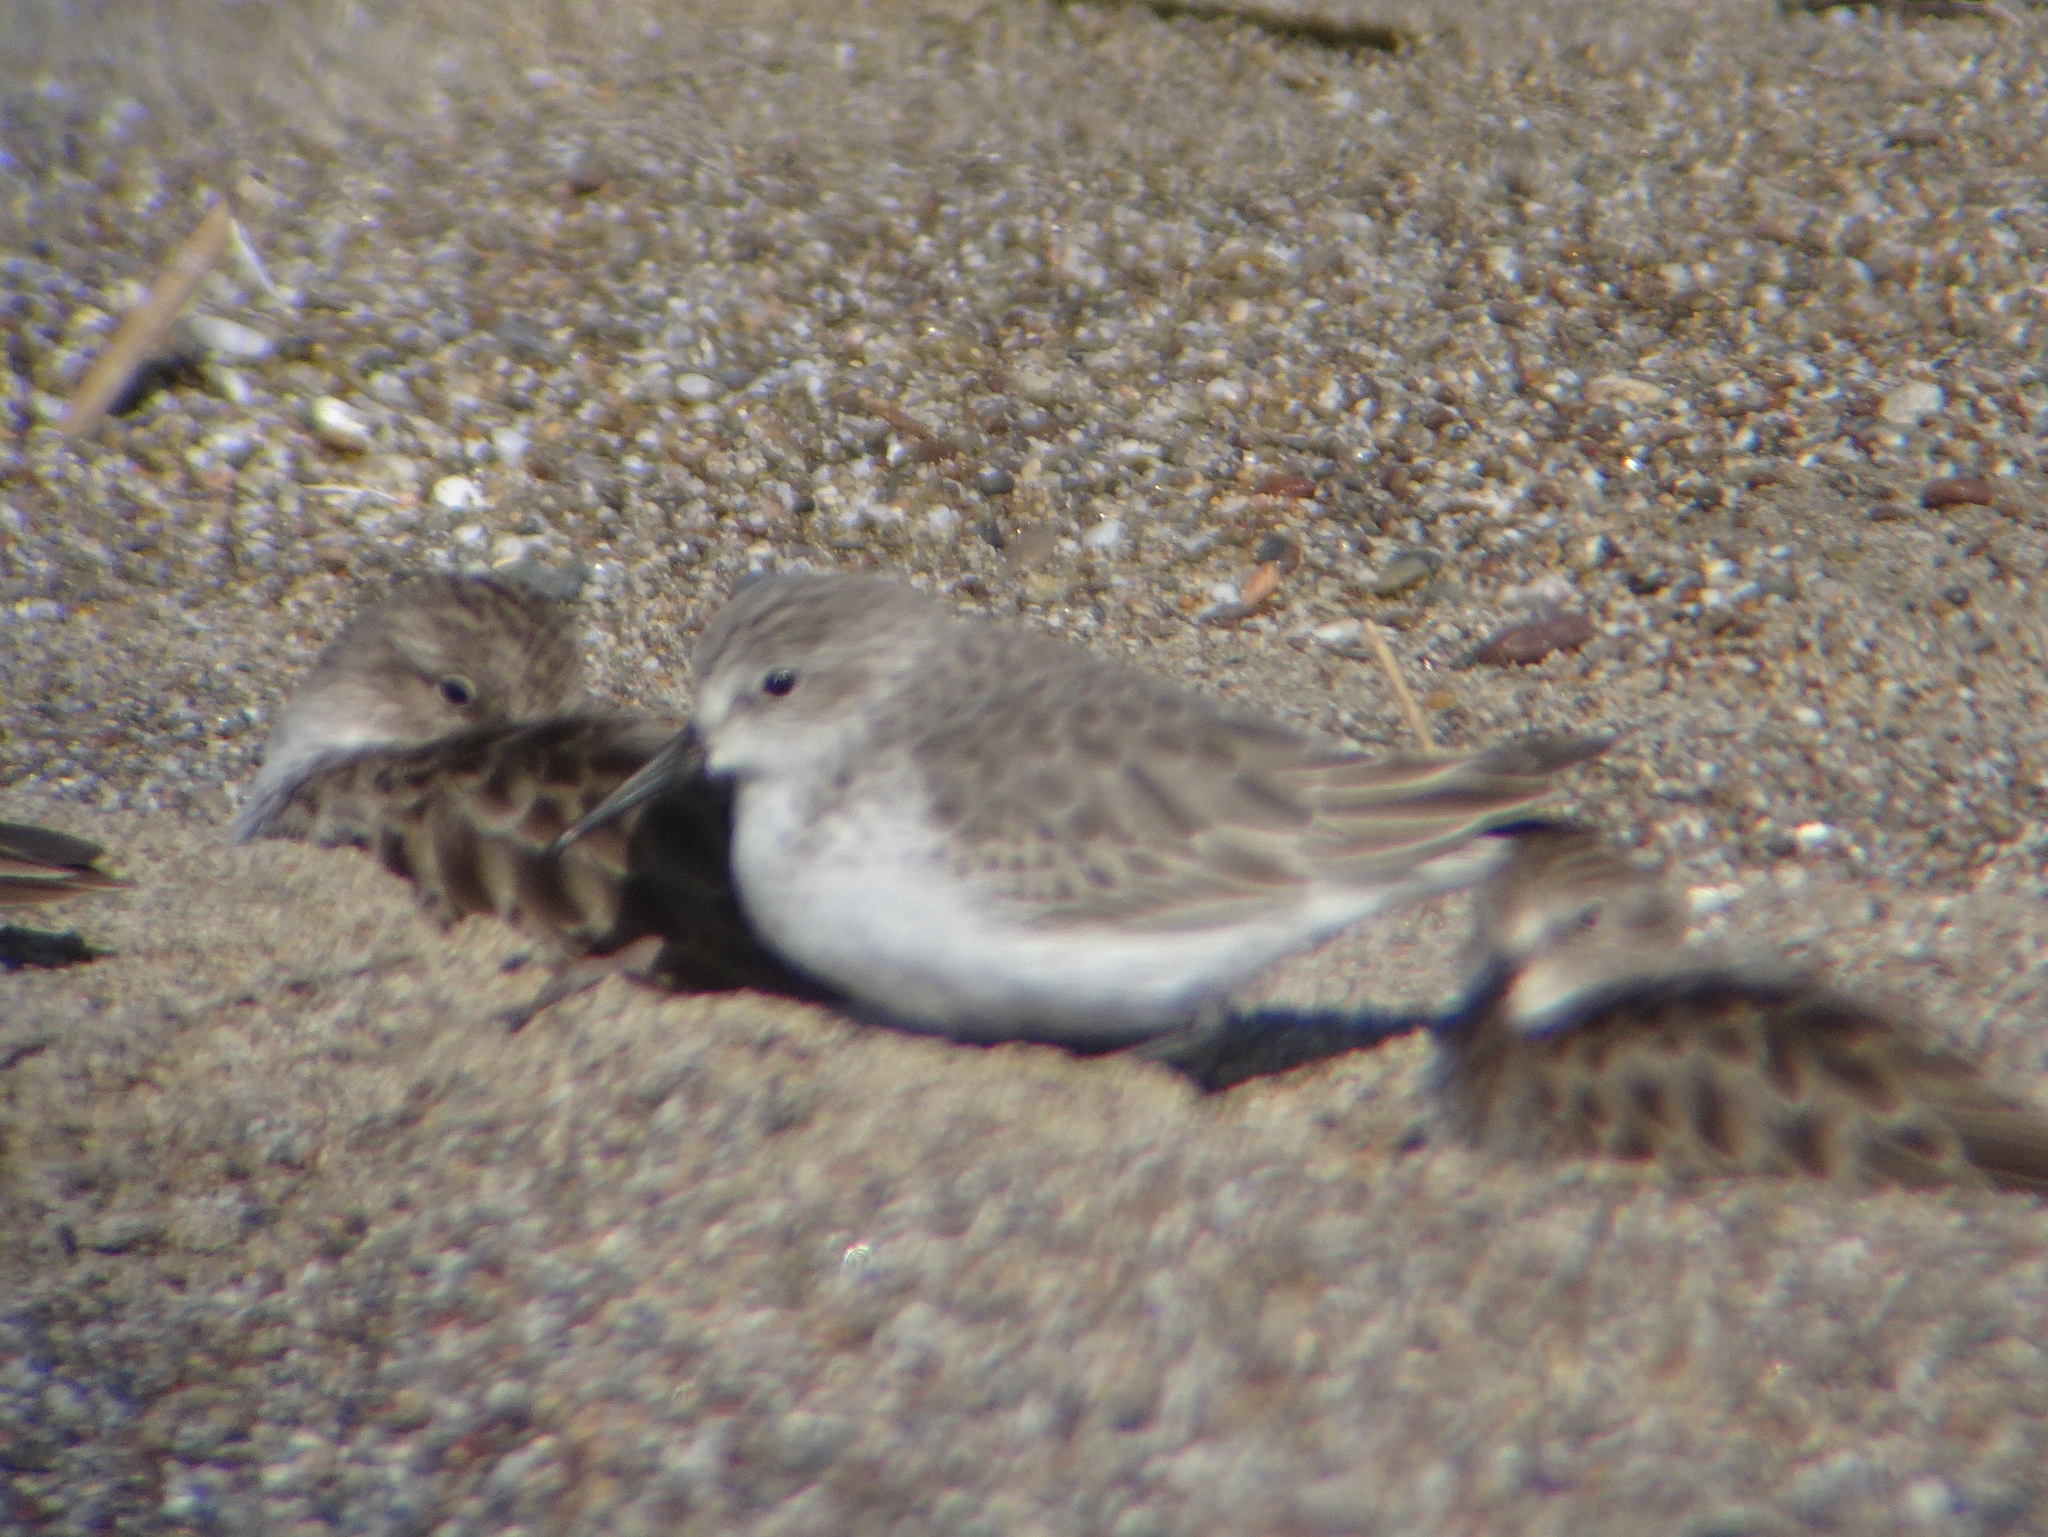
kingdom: Animalia
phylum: Chordata
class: Aves
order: Charadriiformes
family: Scolopacidae
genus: Calidris
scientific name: Calidris mauri
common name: Western sandpiper
